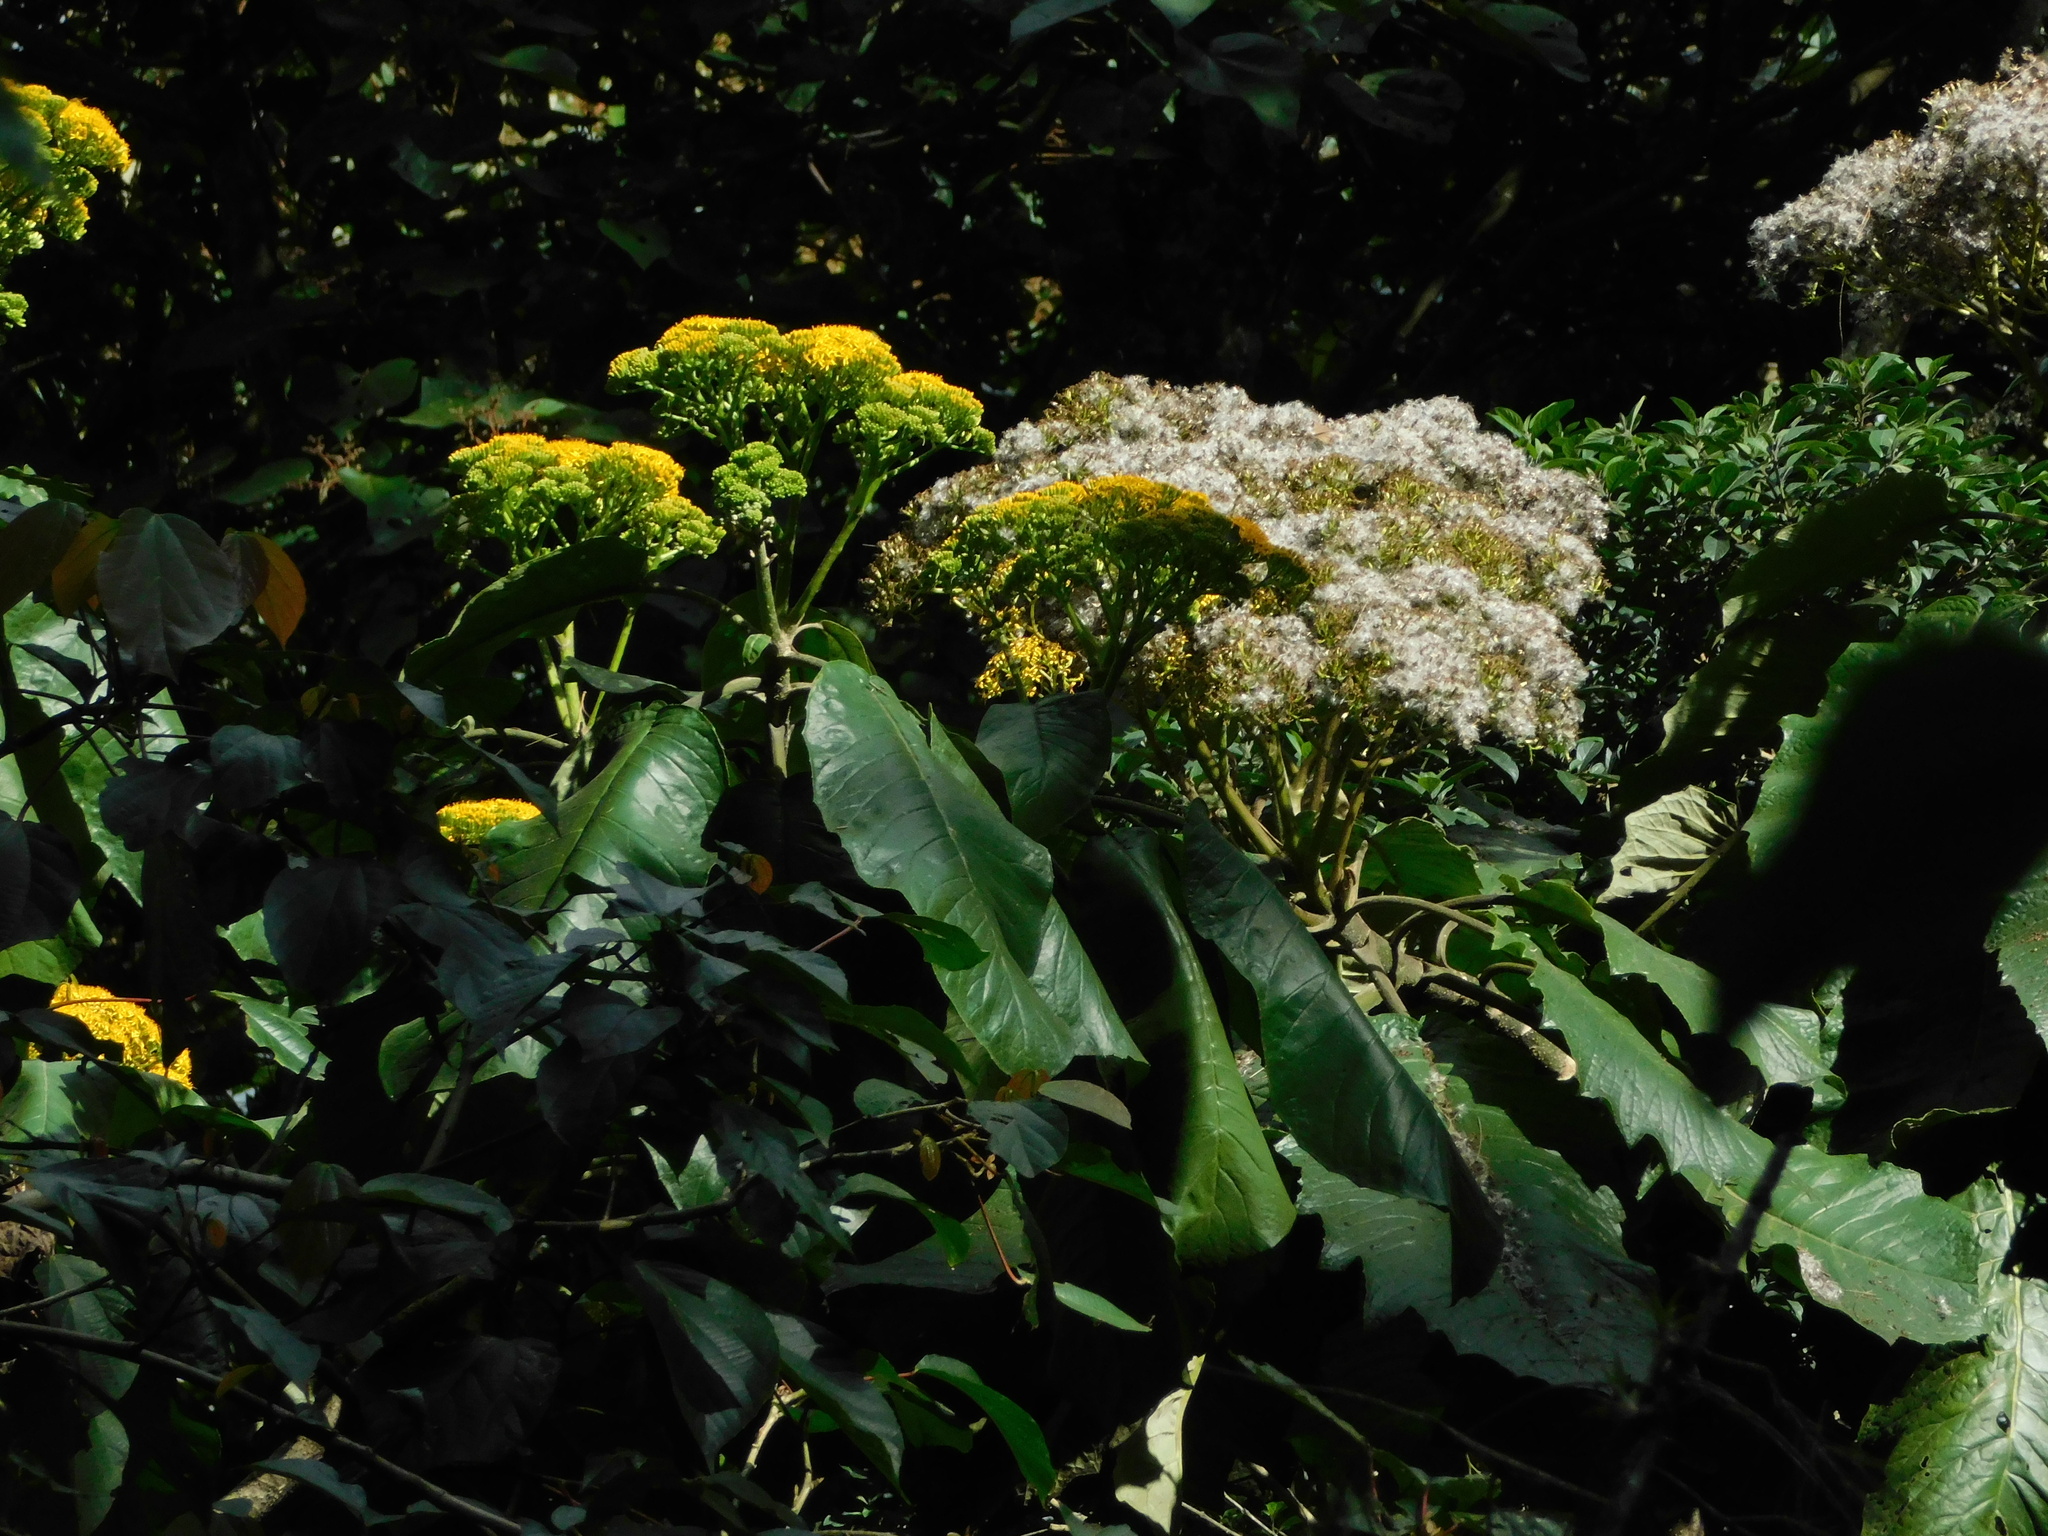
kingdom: Plantae
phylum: Tracheophyta
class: Magnoliopsida
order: Asterales
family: Asteraceae
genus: Telanthophora
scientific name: Telanthophora grandifolia
